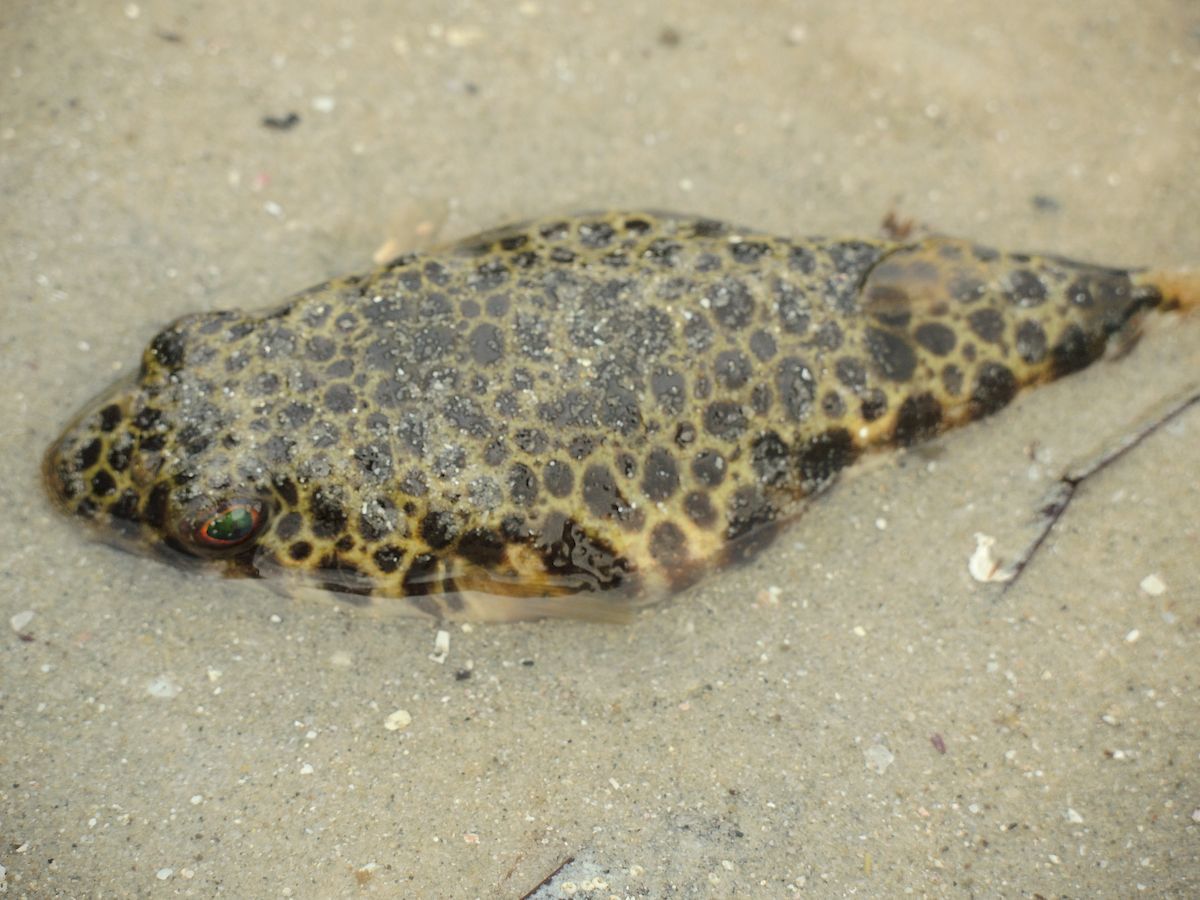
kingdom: Animalia
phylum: Chordata
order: Tetraodontiformes
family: Tetraodontidae
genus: Tetractenos
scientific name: Tetractenos hamiltoni
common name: Common toadfish
